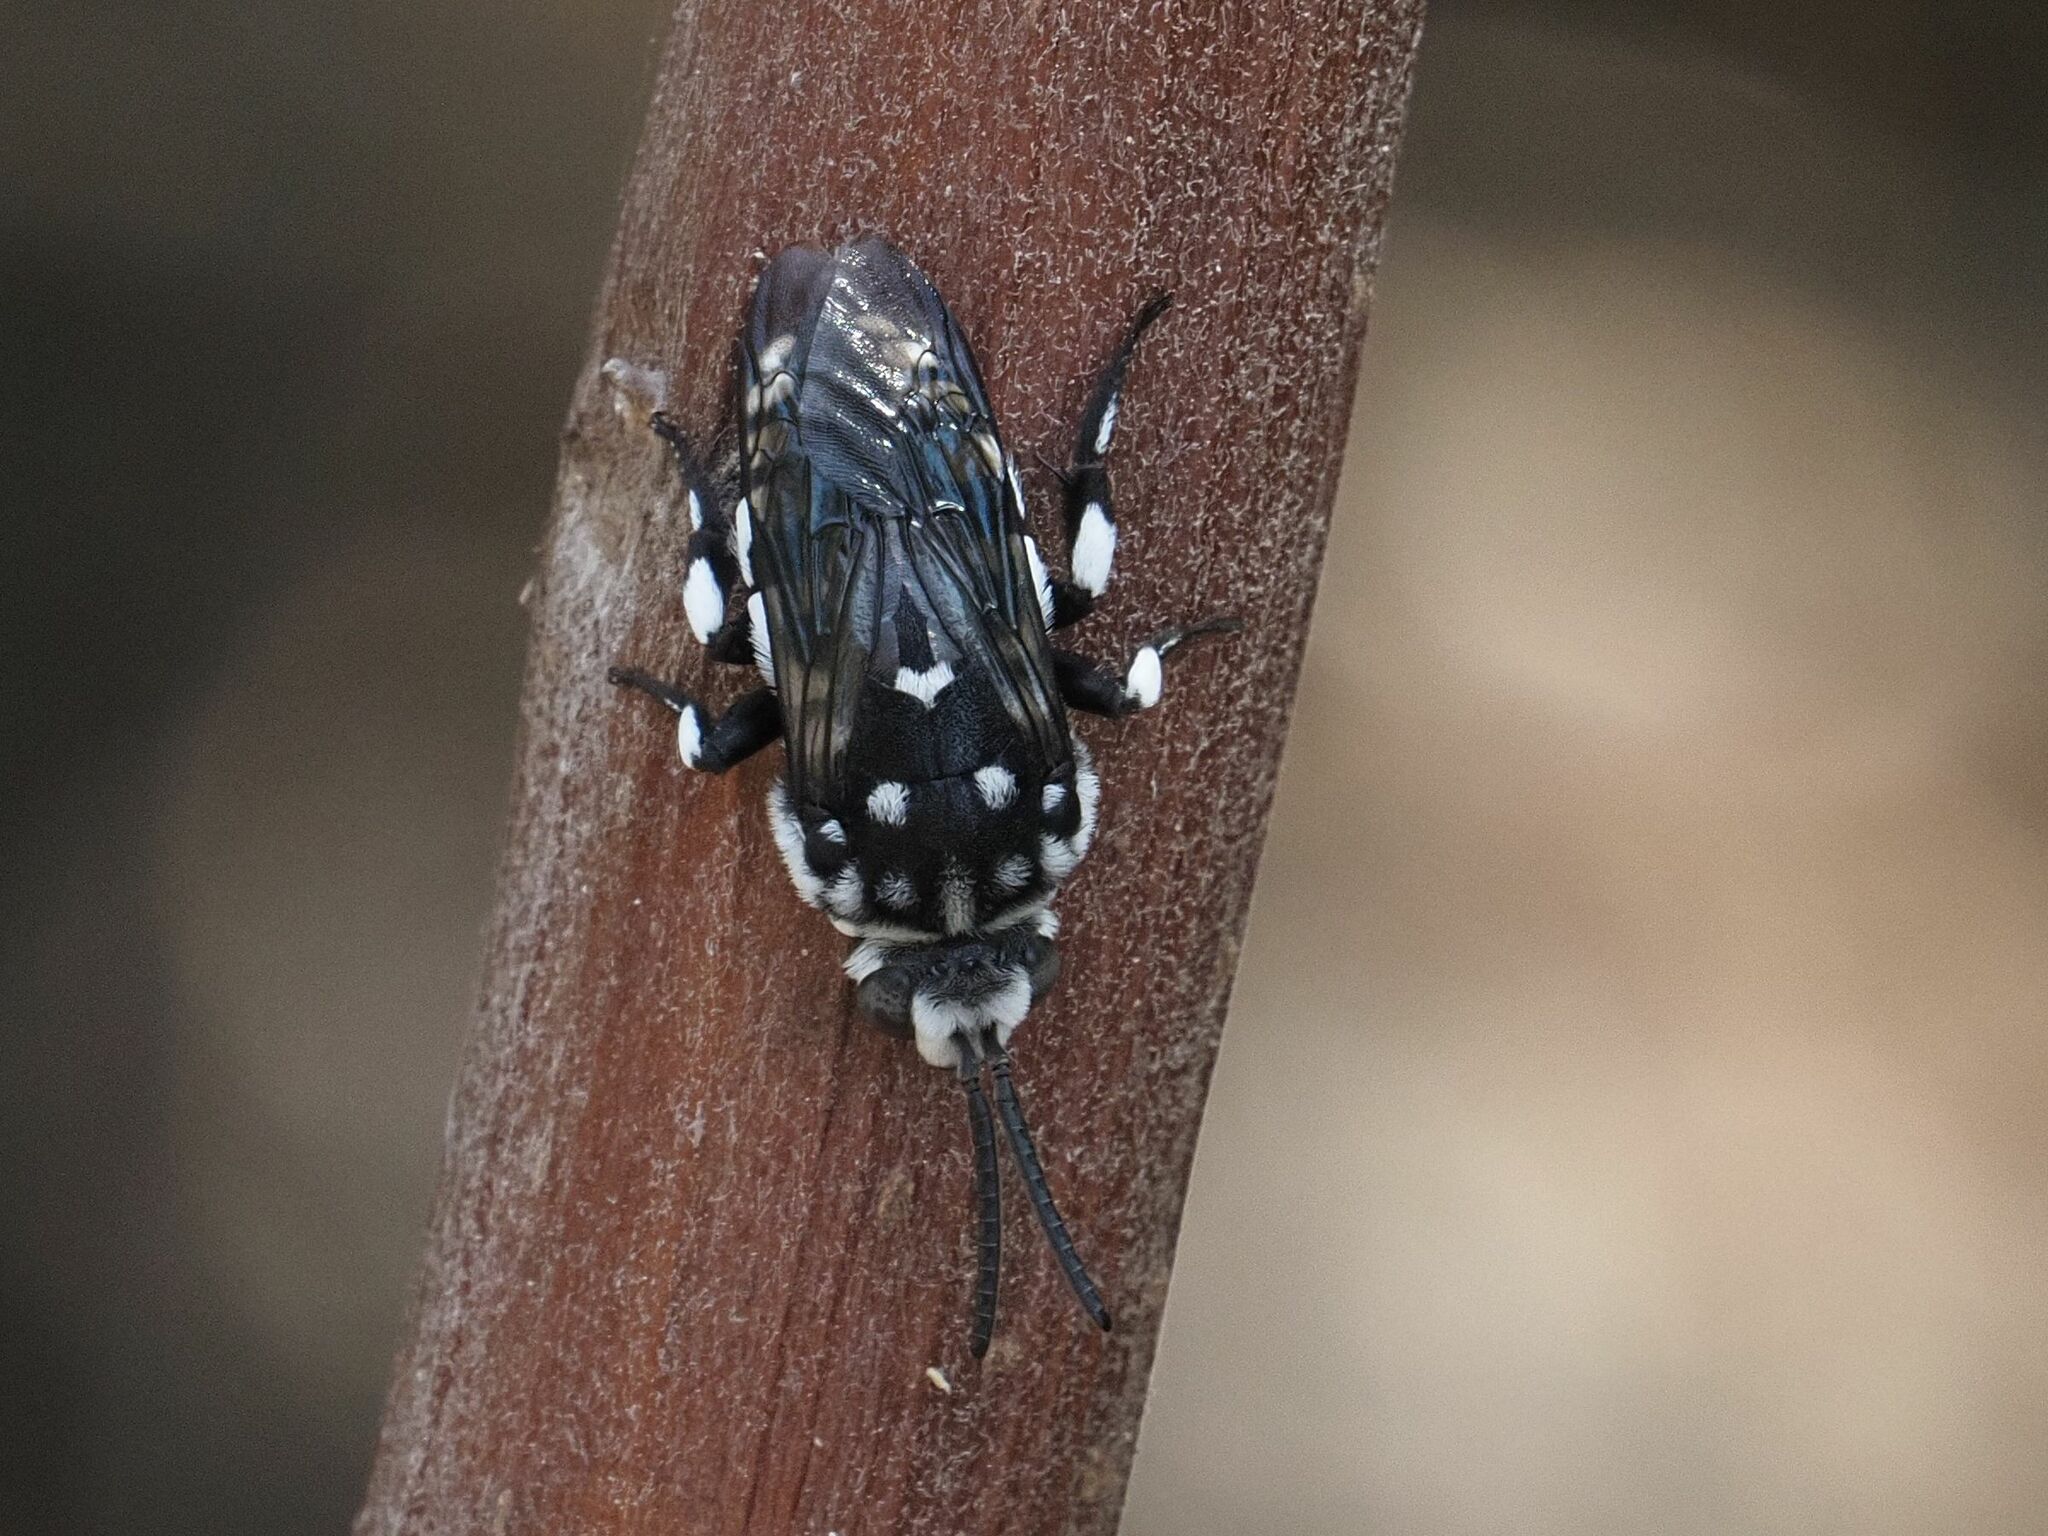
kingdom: Animalia
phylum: Arthropoda
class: Insecta
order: Hymenoptera
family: Apidae
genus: Thyreus
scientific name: Thyreus histrionicus
